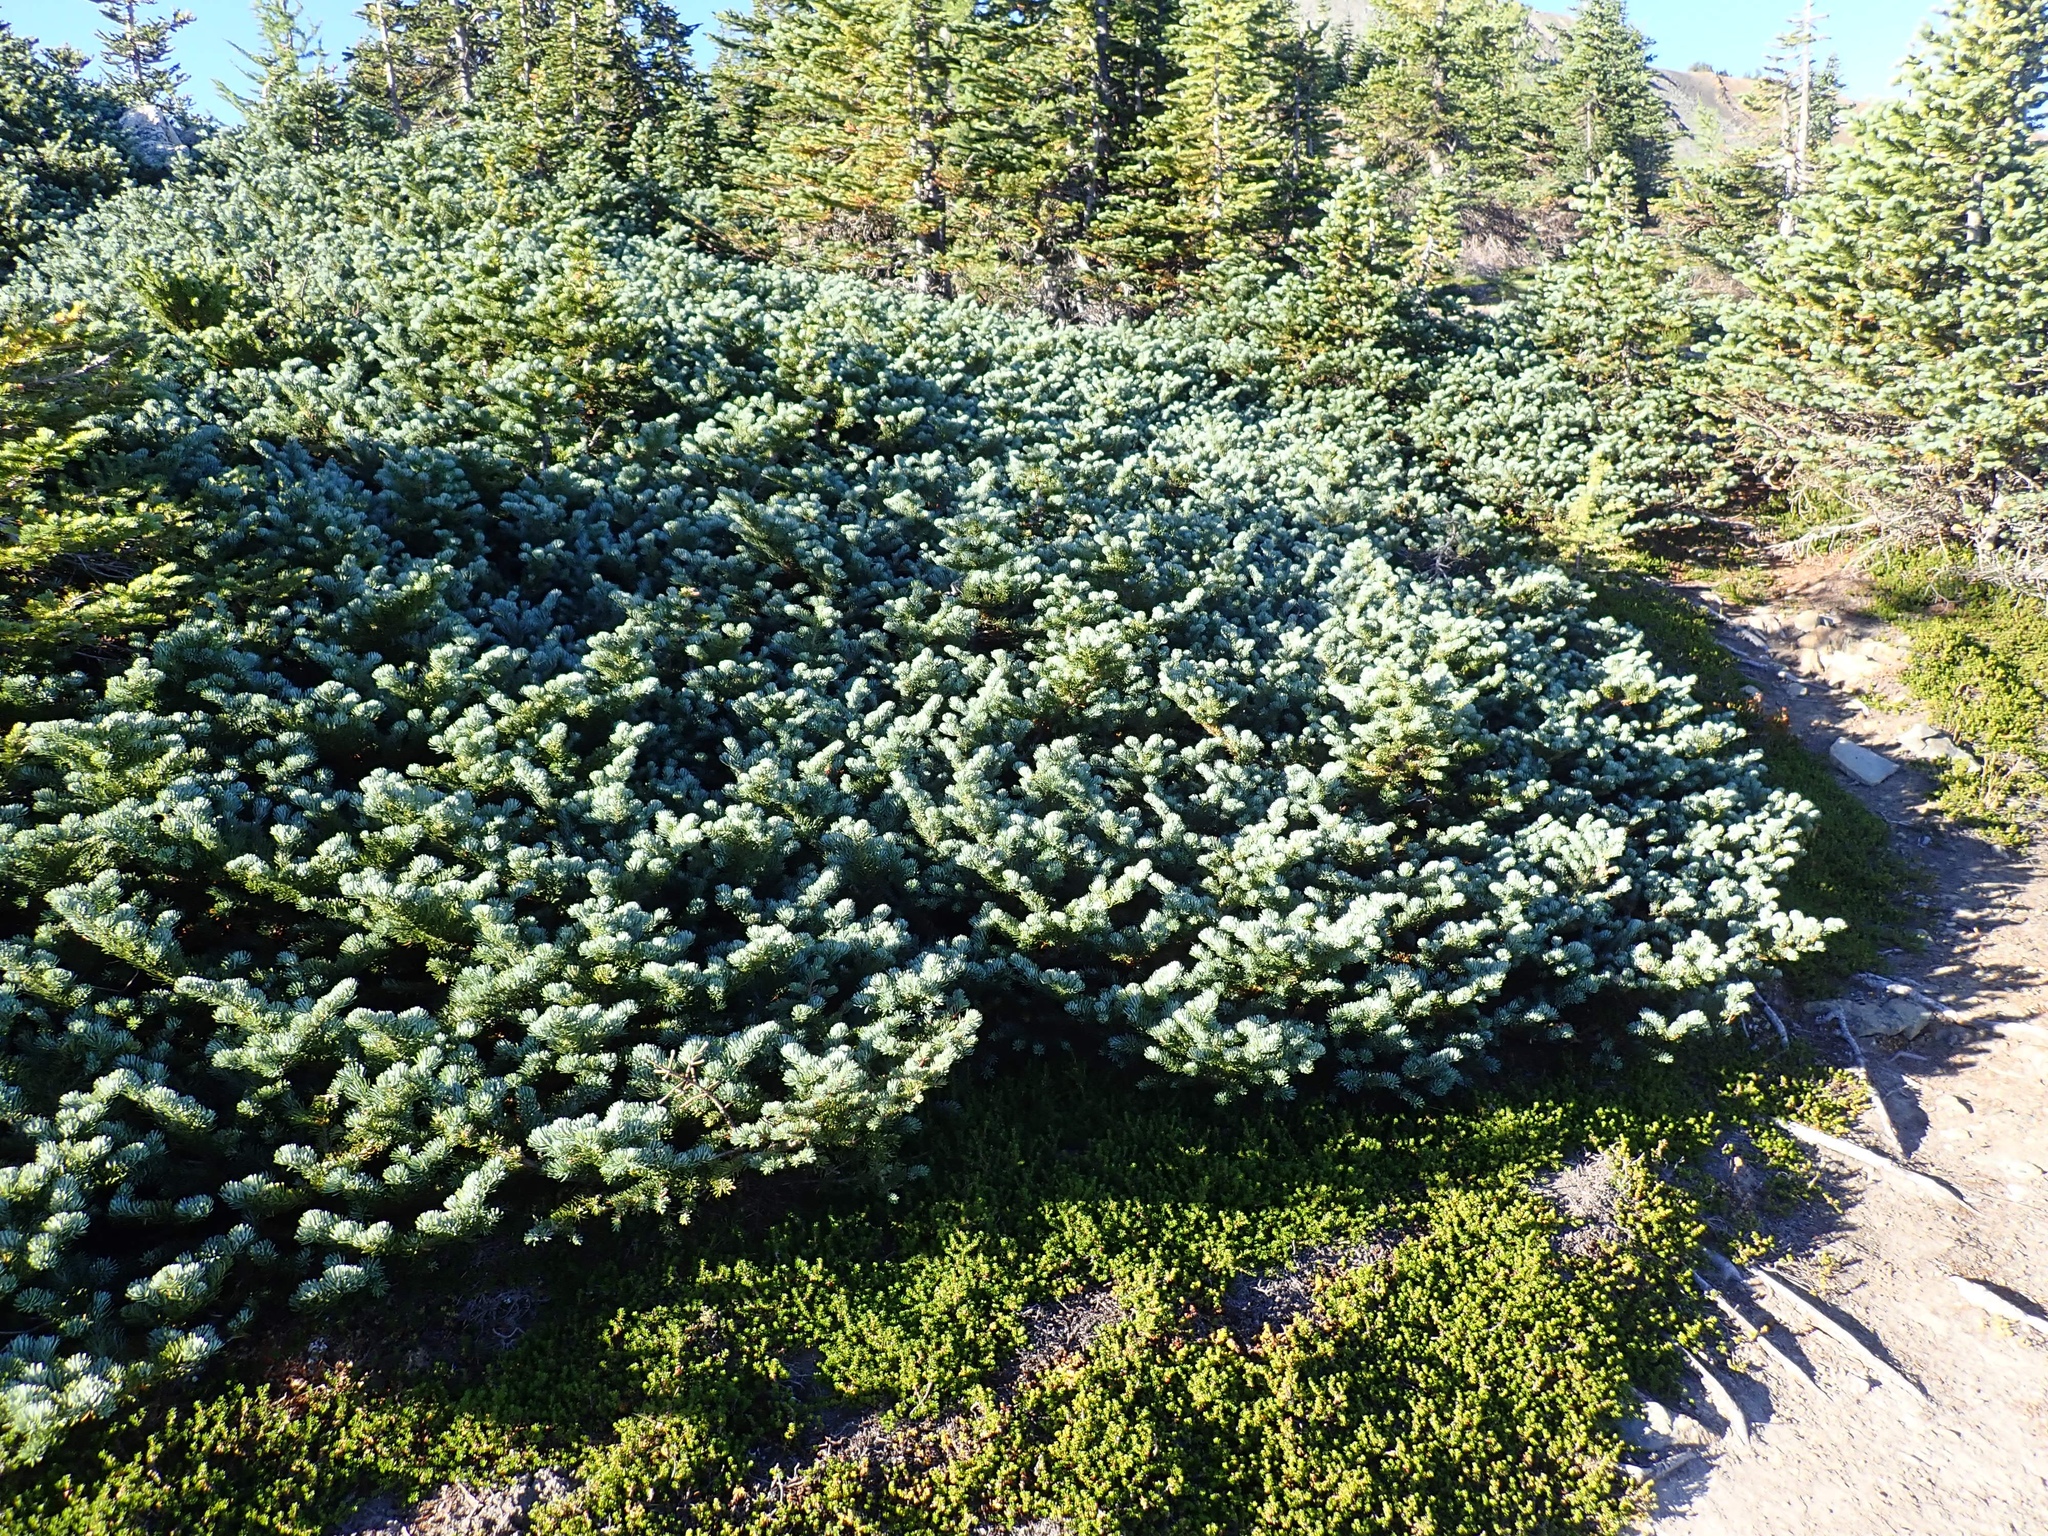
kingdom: Plantae
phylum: Tracheophyta
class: Pinopsida
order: Pinales
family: Pinaceae
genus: Abies
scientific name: Abies lasiocarpa
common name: Subalpine fir
